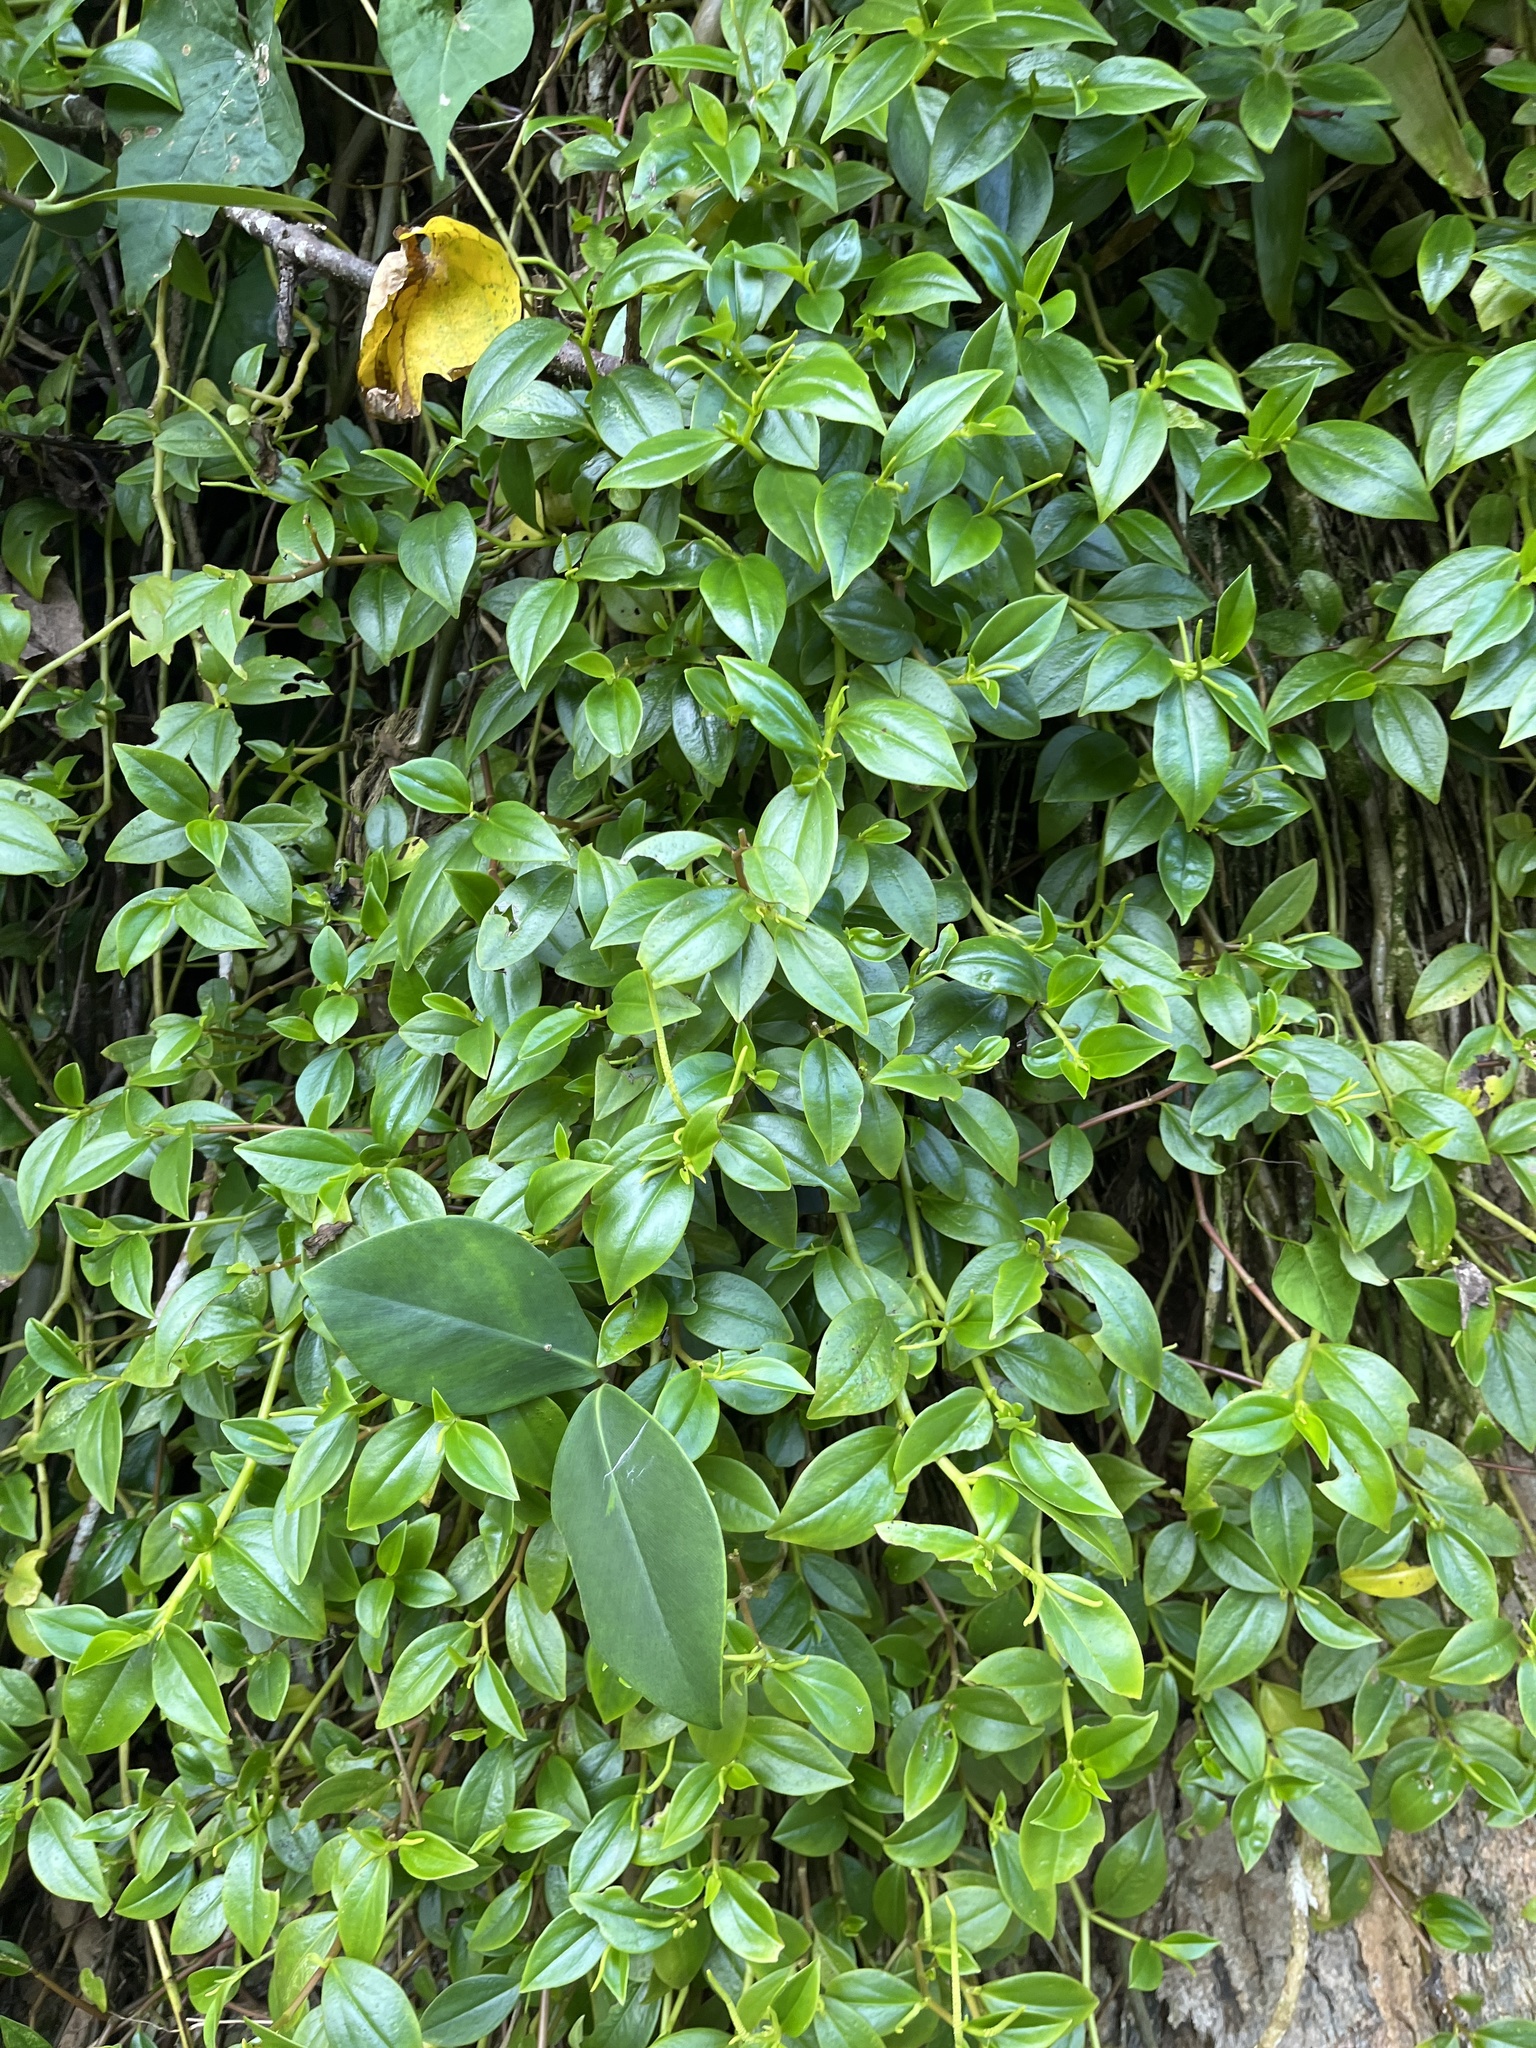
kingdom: Plantae
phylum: Tracheophyta
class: Magnoliopsida
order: Piperales
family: Piperaceae
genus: Peperomia
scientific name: Peperomia glabella
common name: Cypress peperomia
